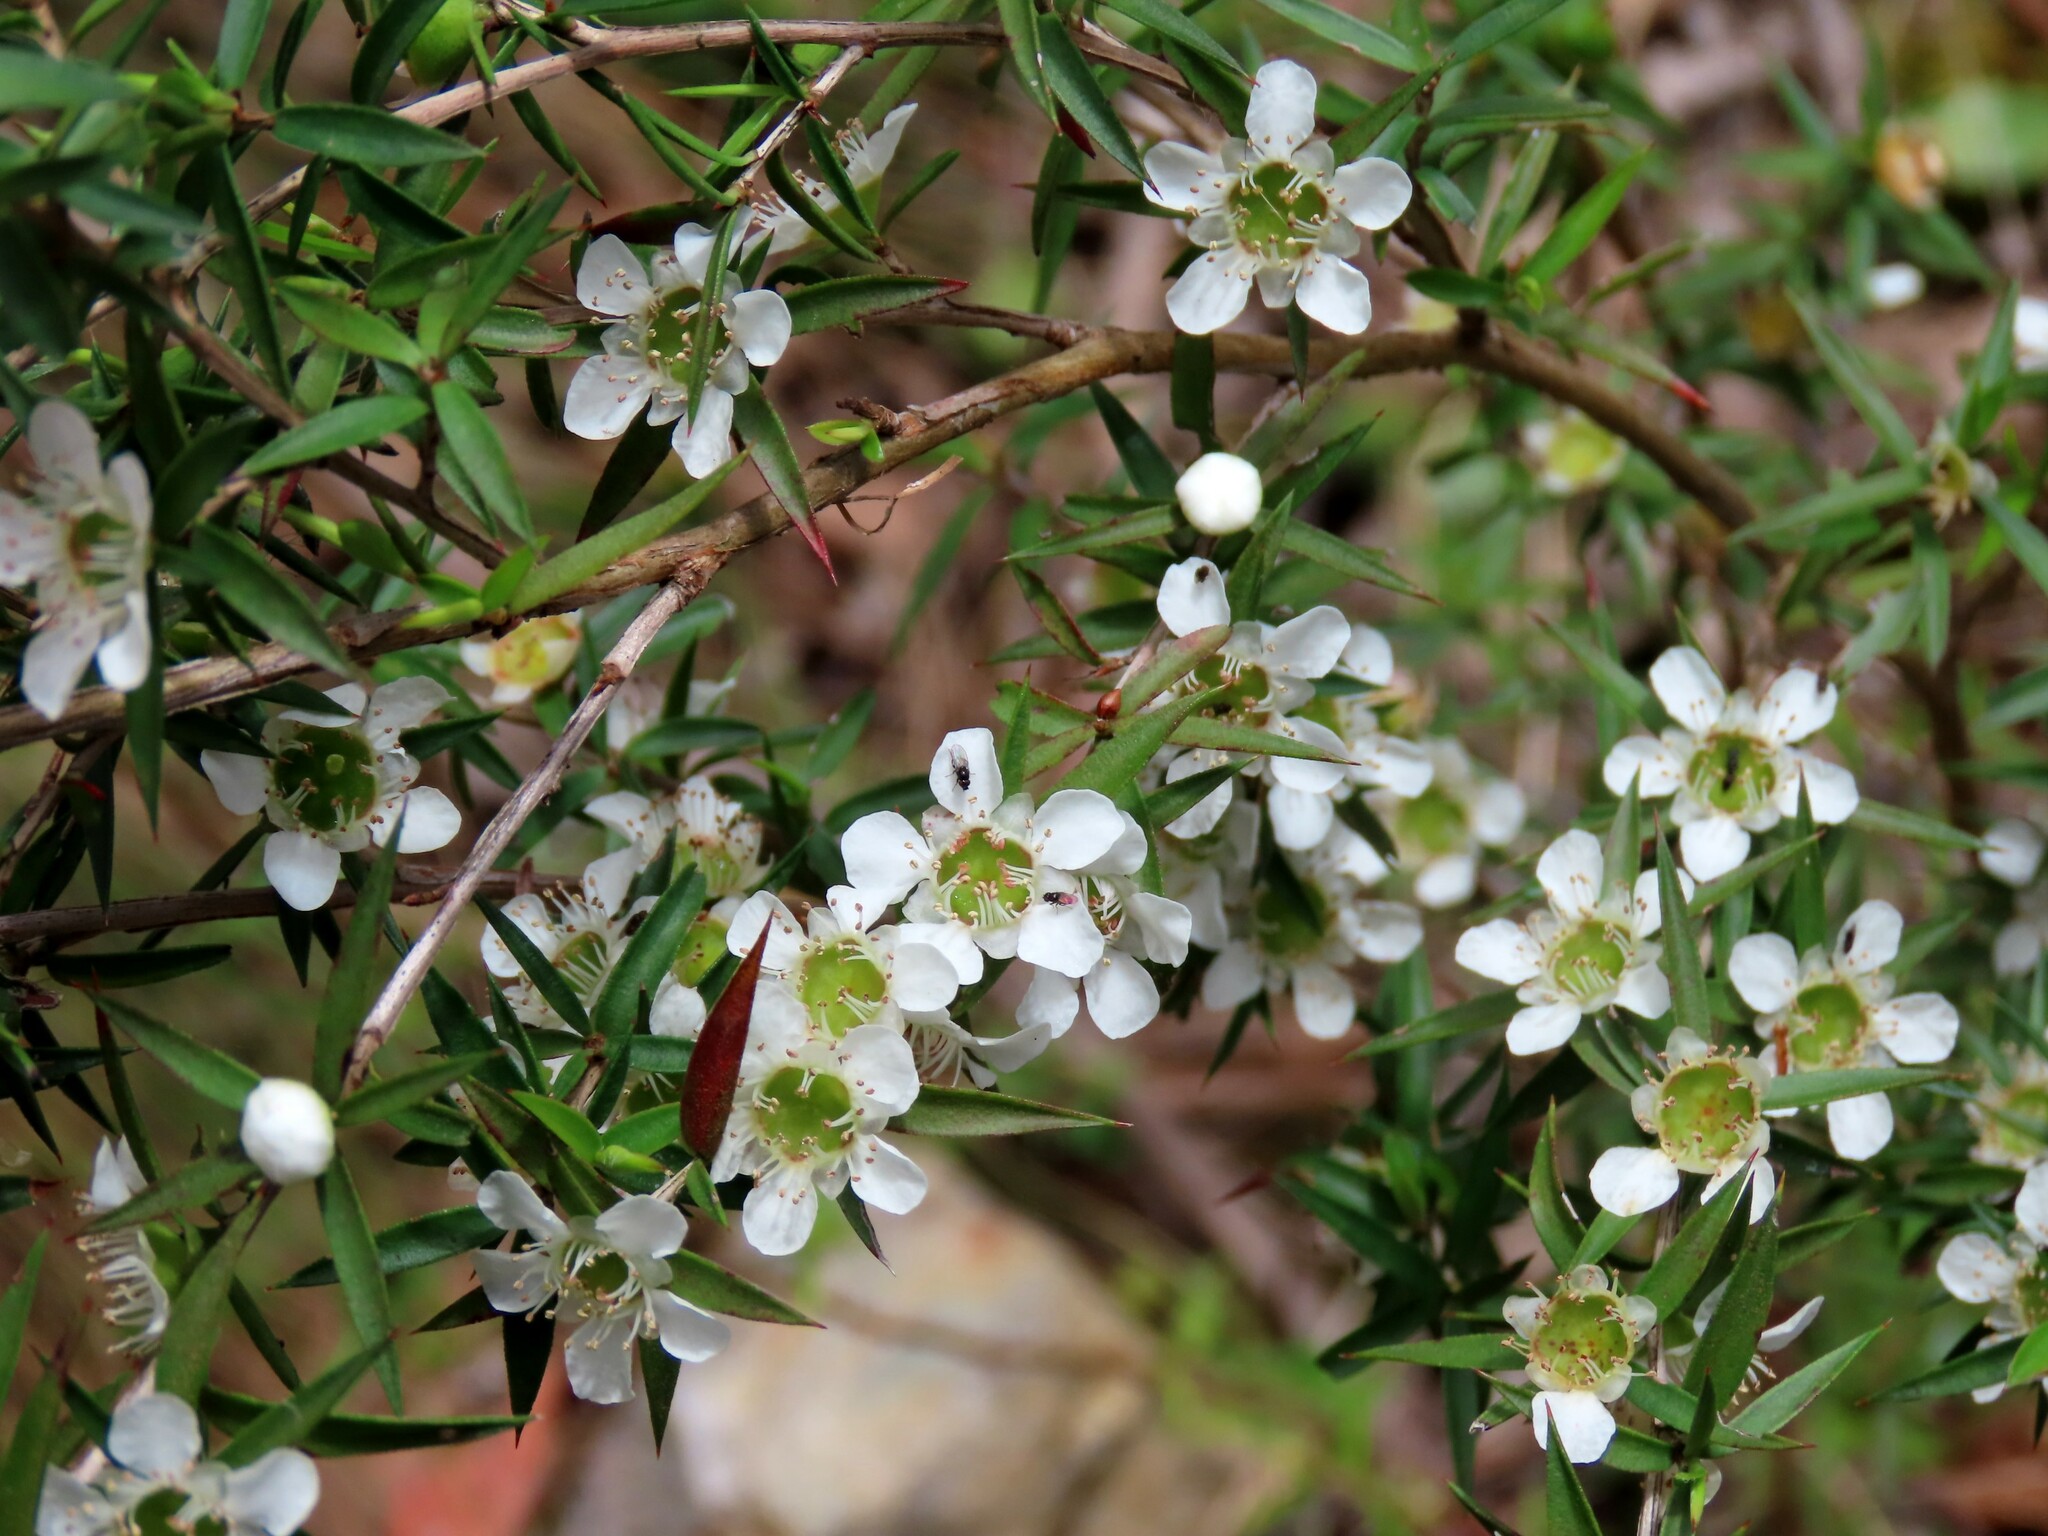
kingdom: Plantae
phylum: Tracheophyta
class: Magnoliopsida
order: Myrtales
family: Myrtaceae
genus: Leptospermum
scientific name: Leptospermum continentale
